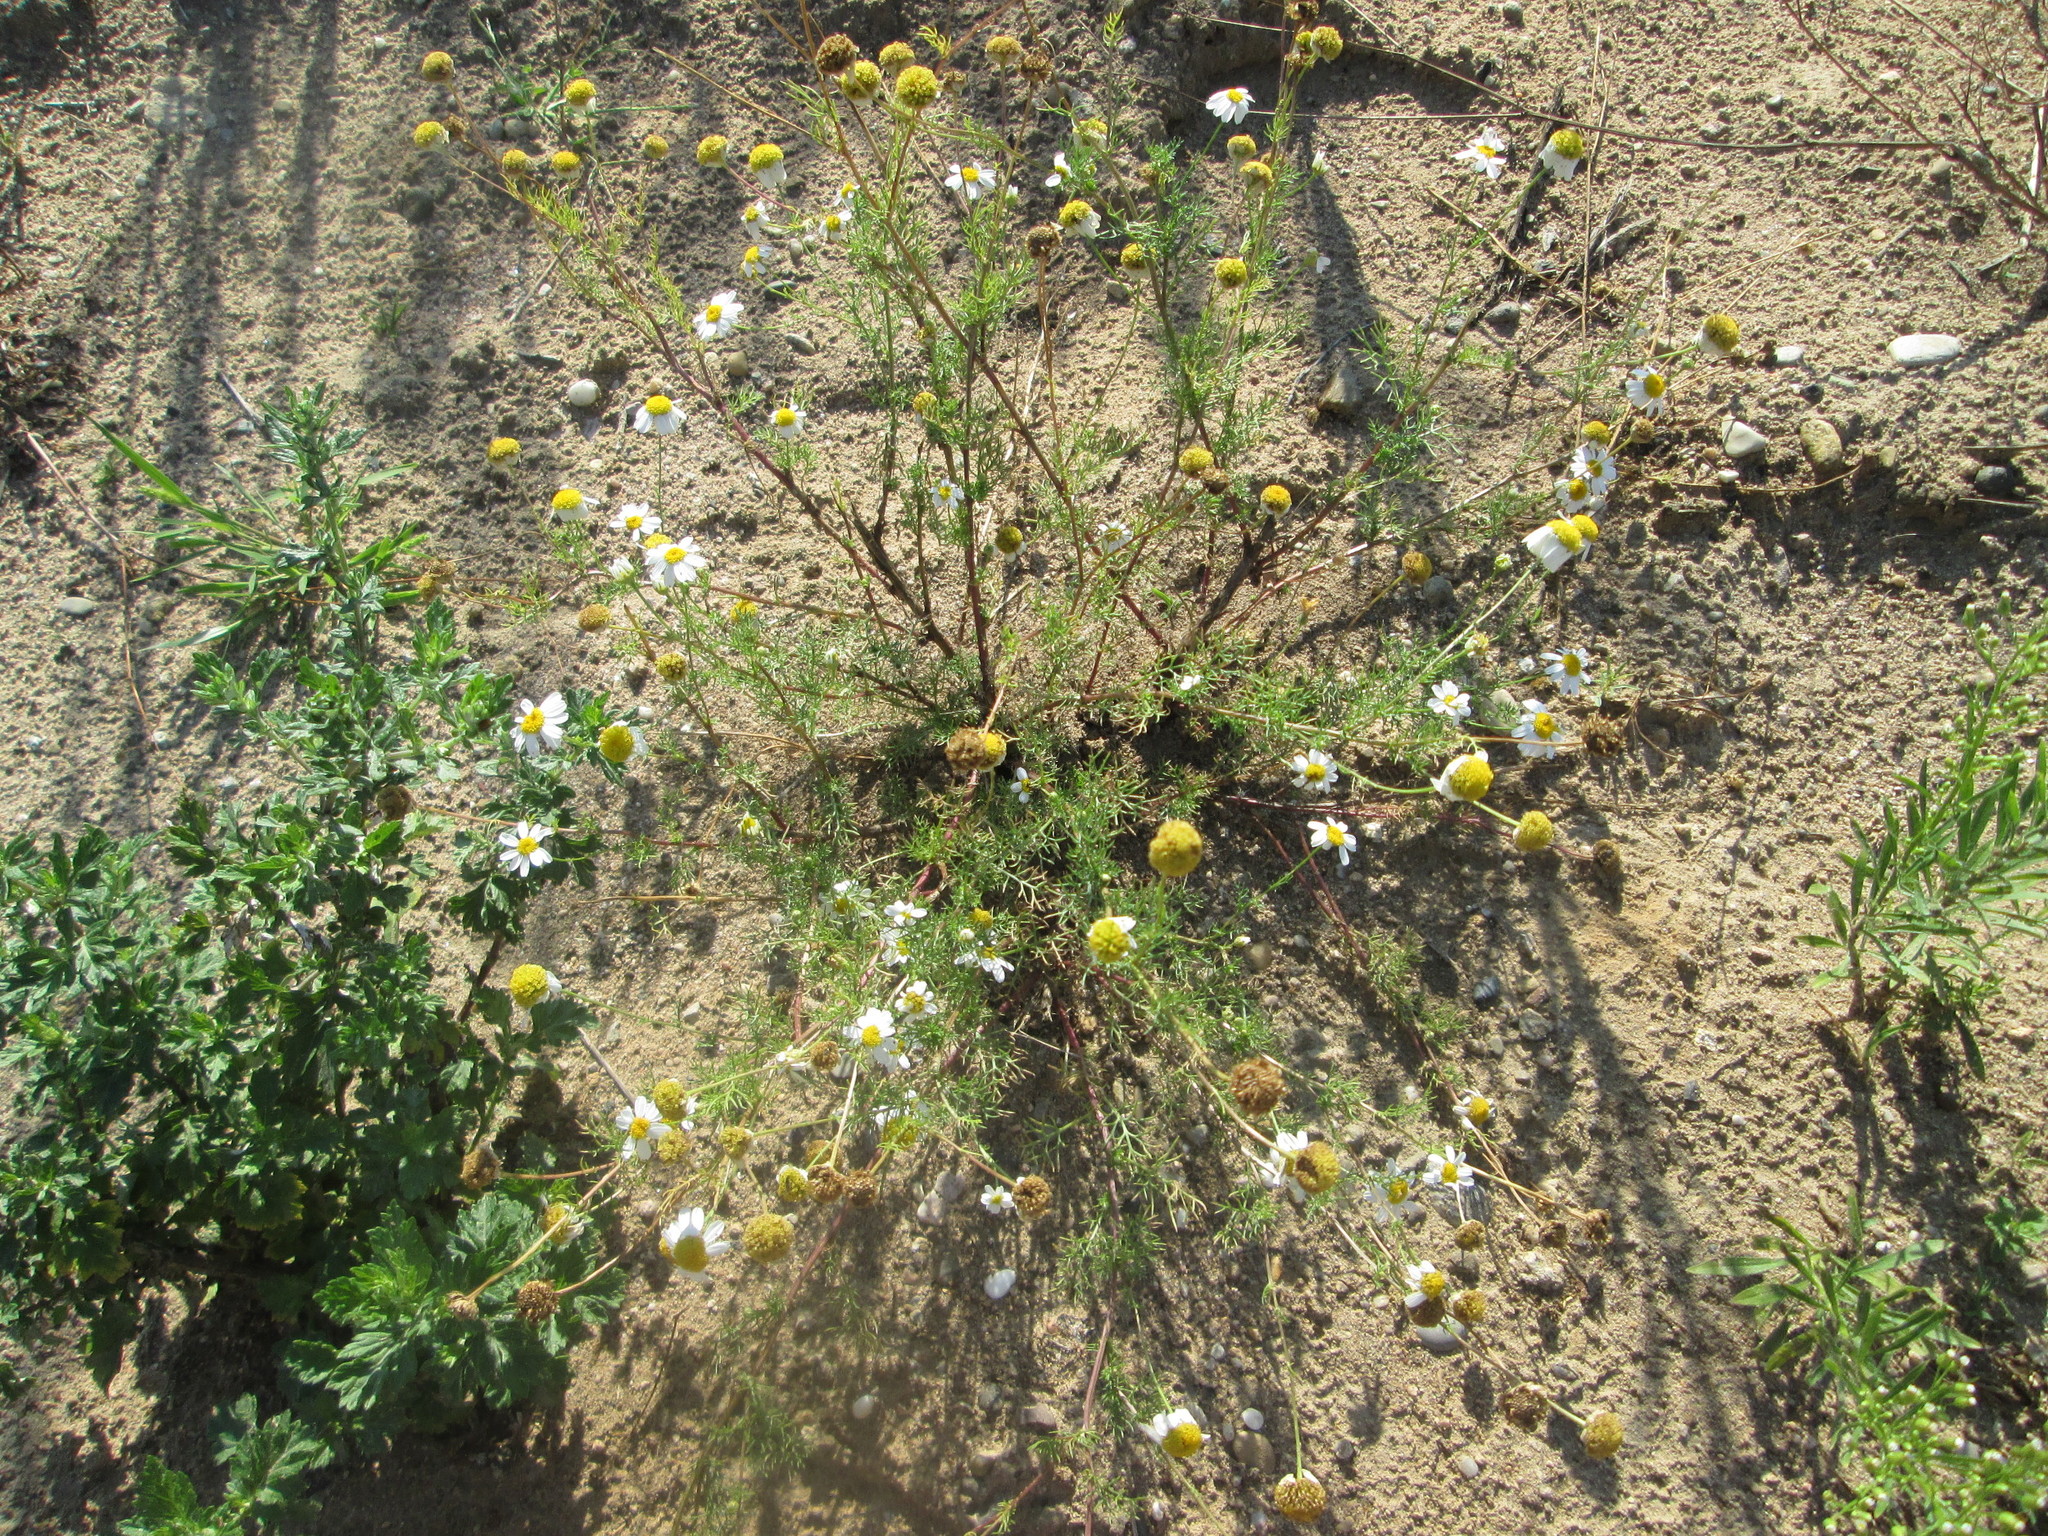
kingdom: Plantae
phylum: Tracheophyta
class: Magnoliopsida
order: Asterales
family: Asteraceae
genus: Tripleurospermum
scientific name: Tripleurospermum inodorum
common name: Scentless mayweed
